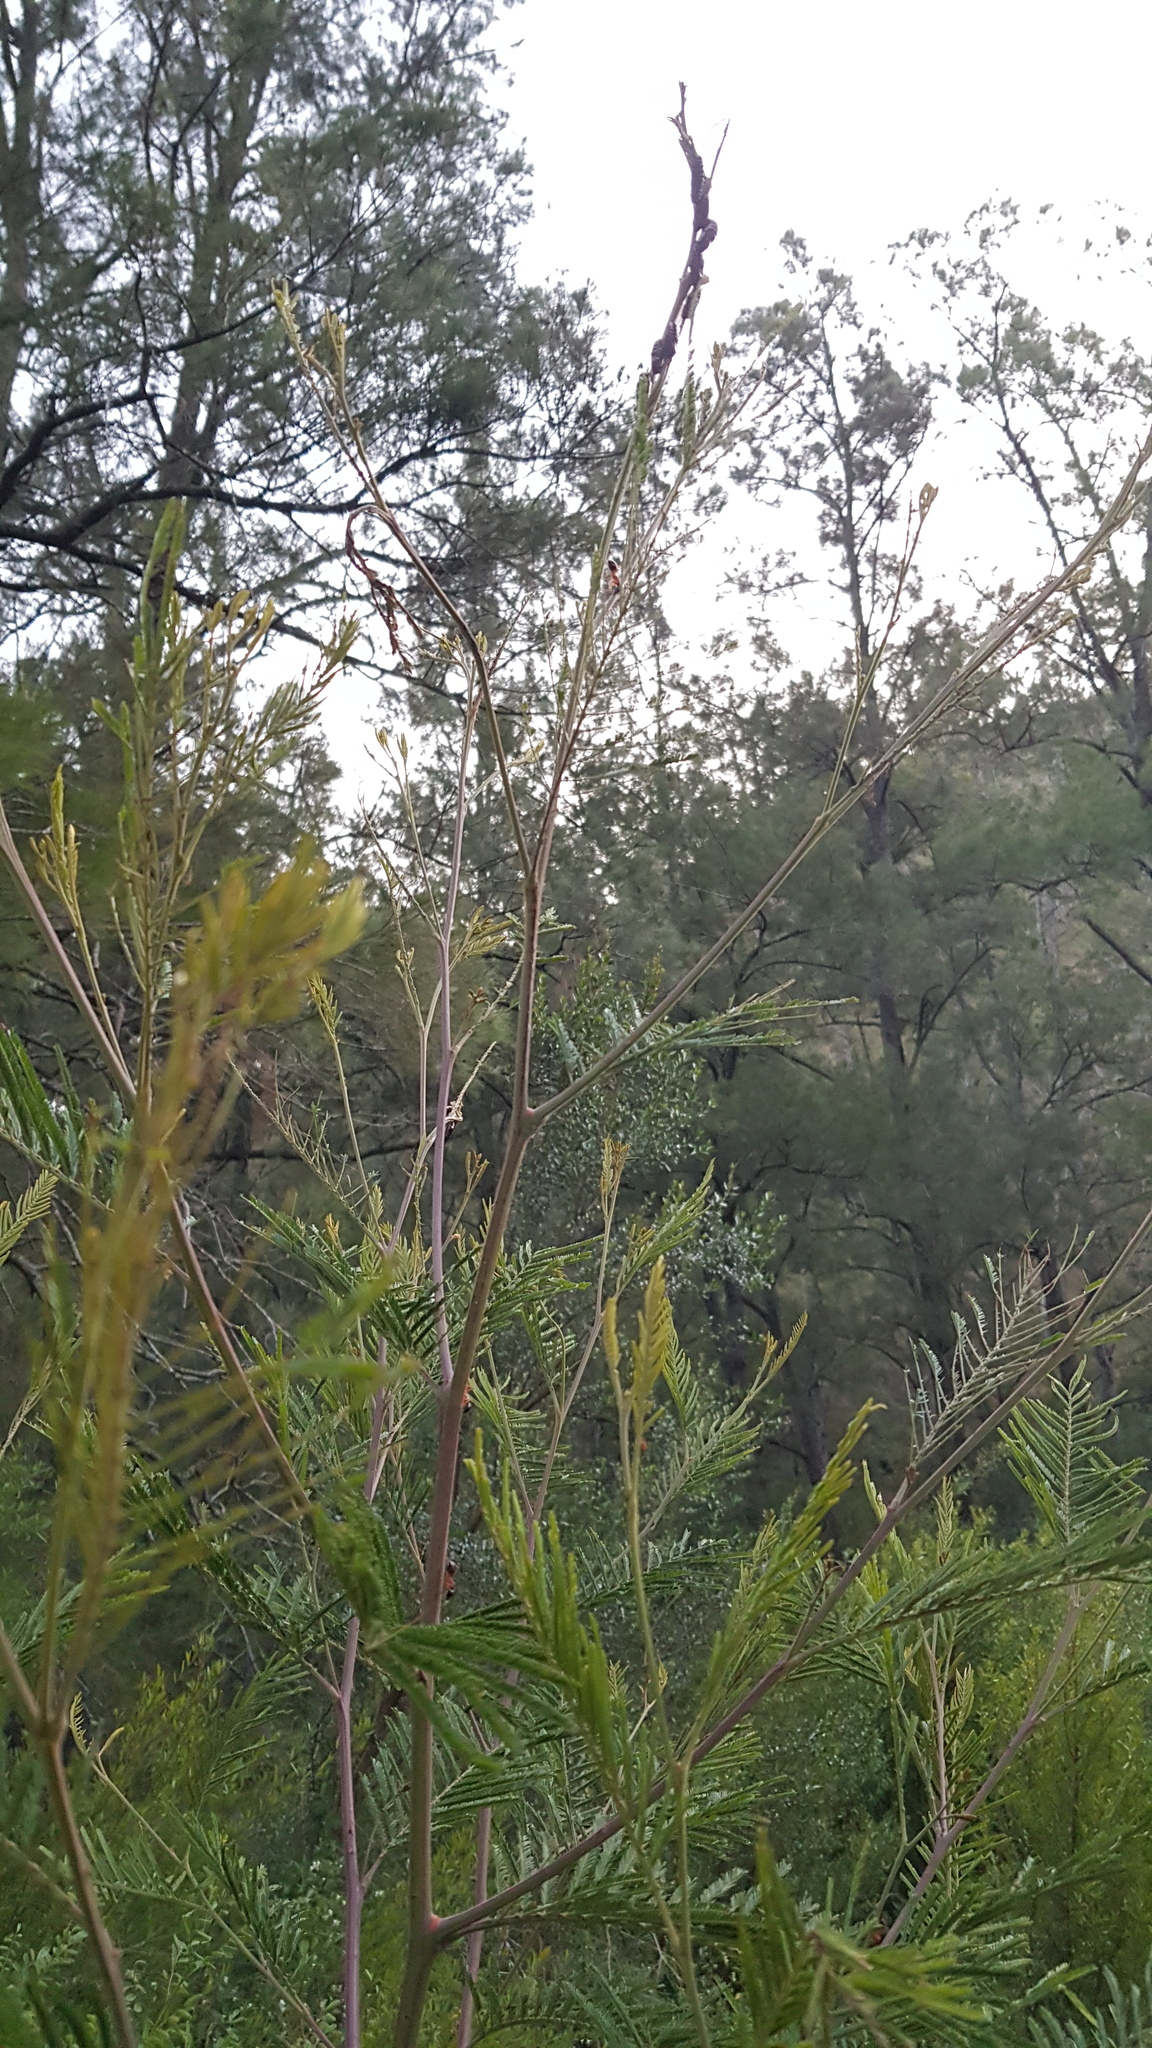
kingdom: Animalia
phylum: Arthropoda
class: Insecta
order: Hymenoptera
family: Formicidae
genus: Camponotus
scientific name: Camponotus consobrinus
